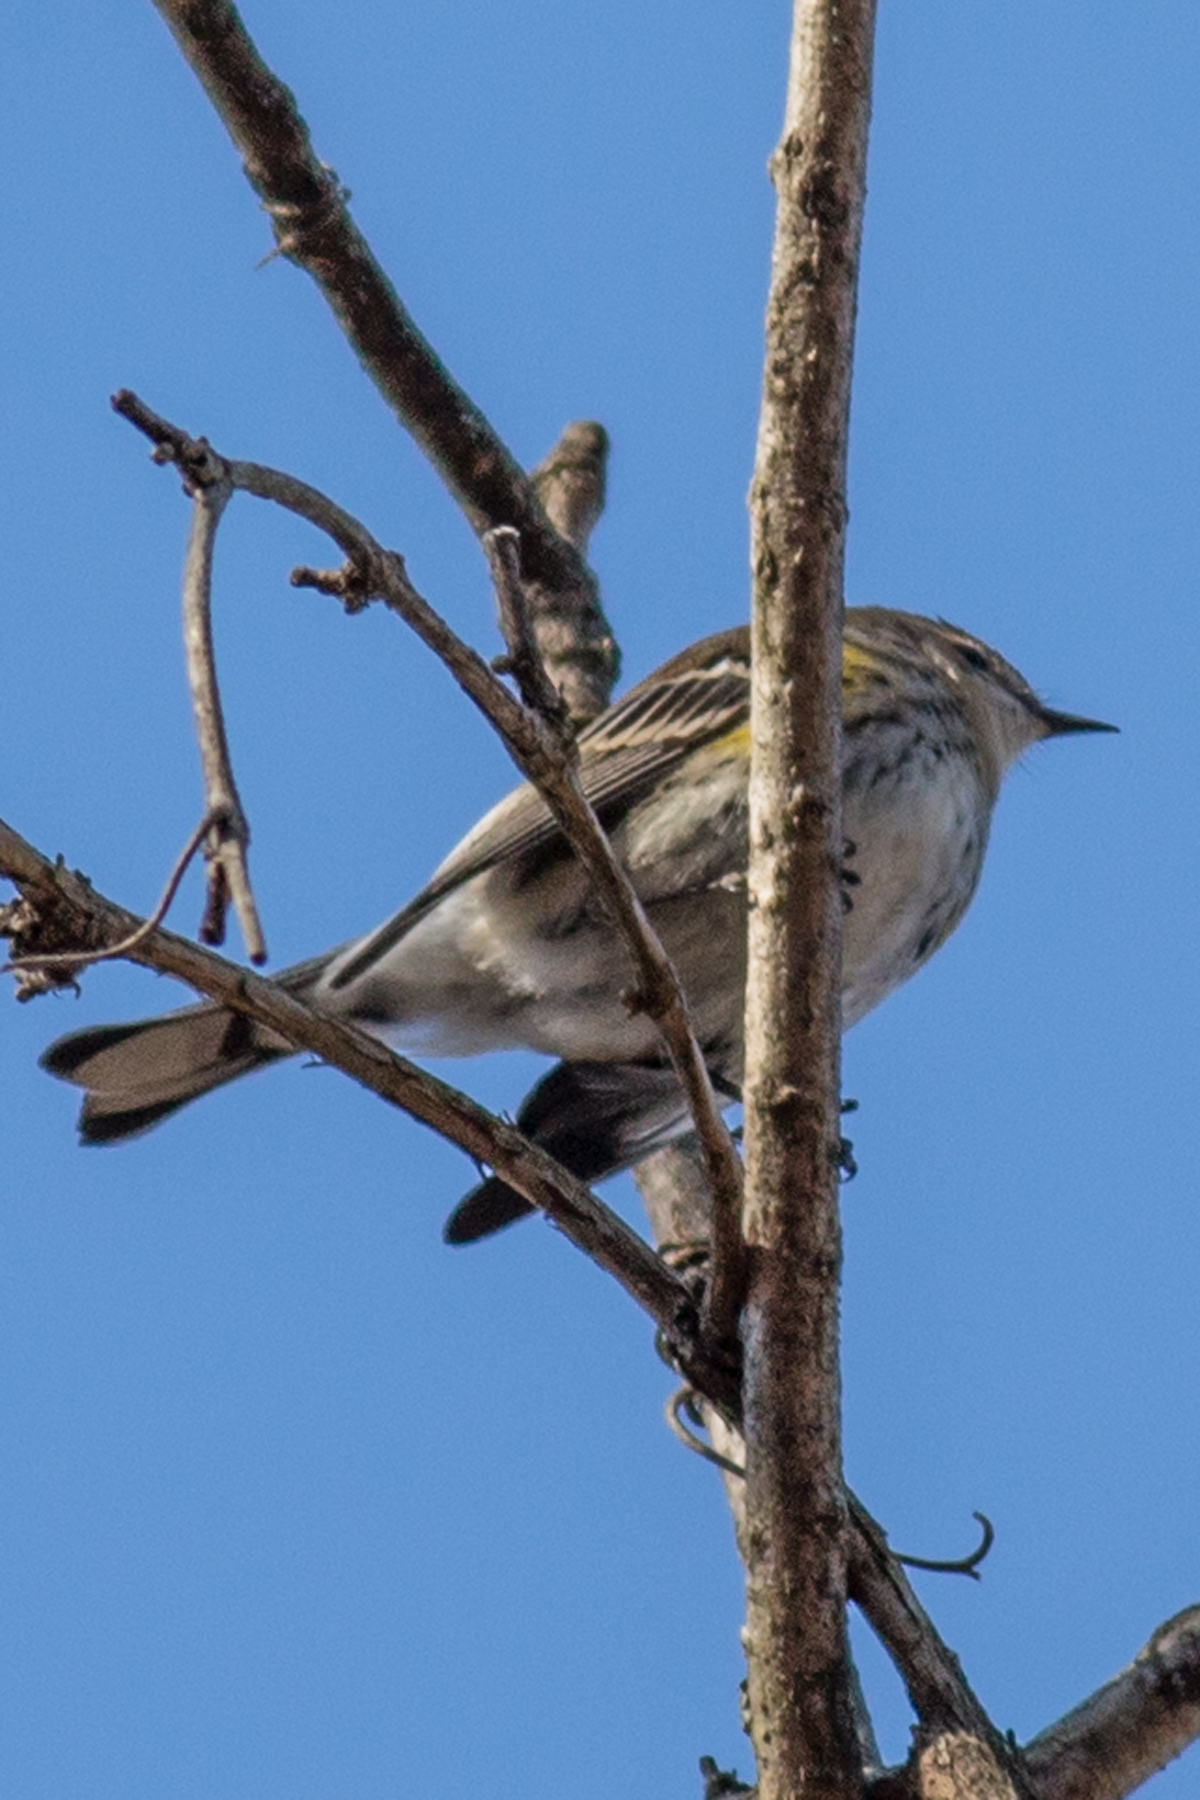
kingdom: Animalia
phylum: Chordata
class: Aves
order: Passeriformes
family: Parulidae
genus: Setophaga
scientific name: Setophaga coronata
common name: Myrtle warbler
